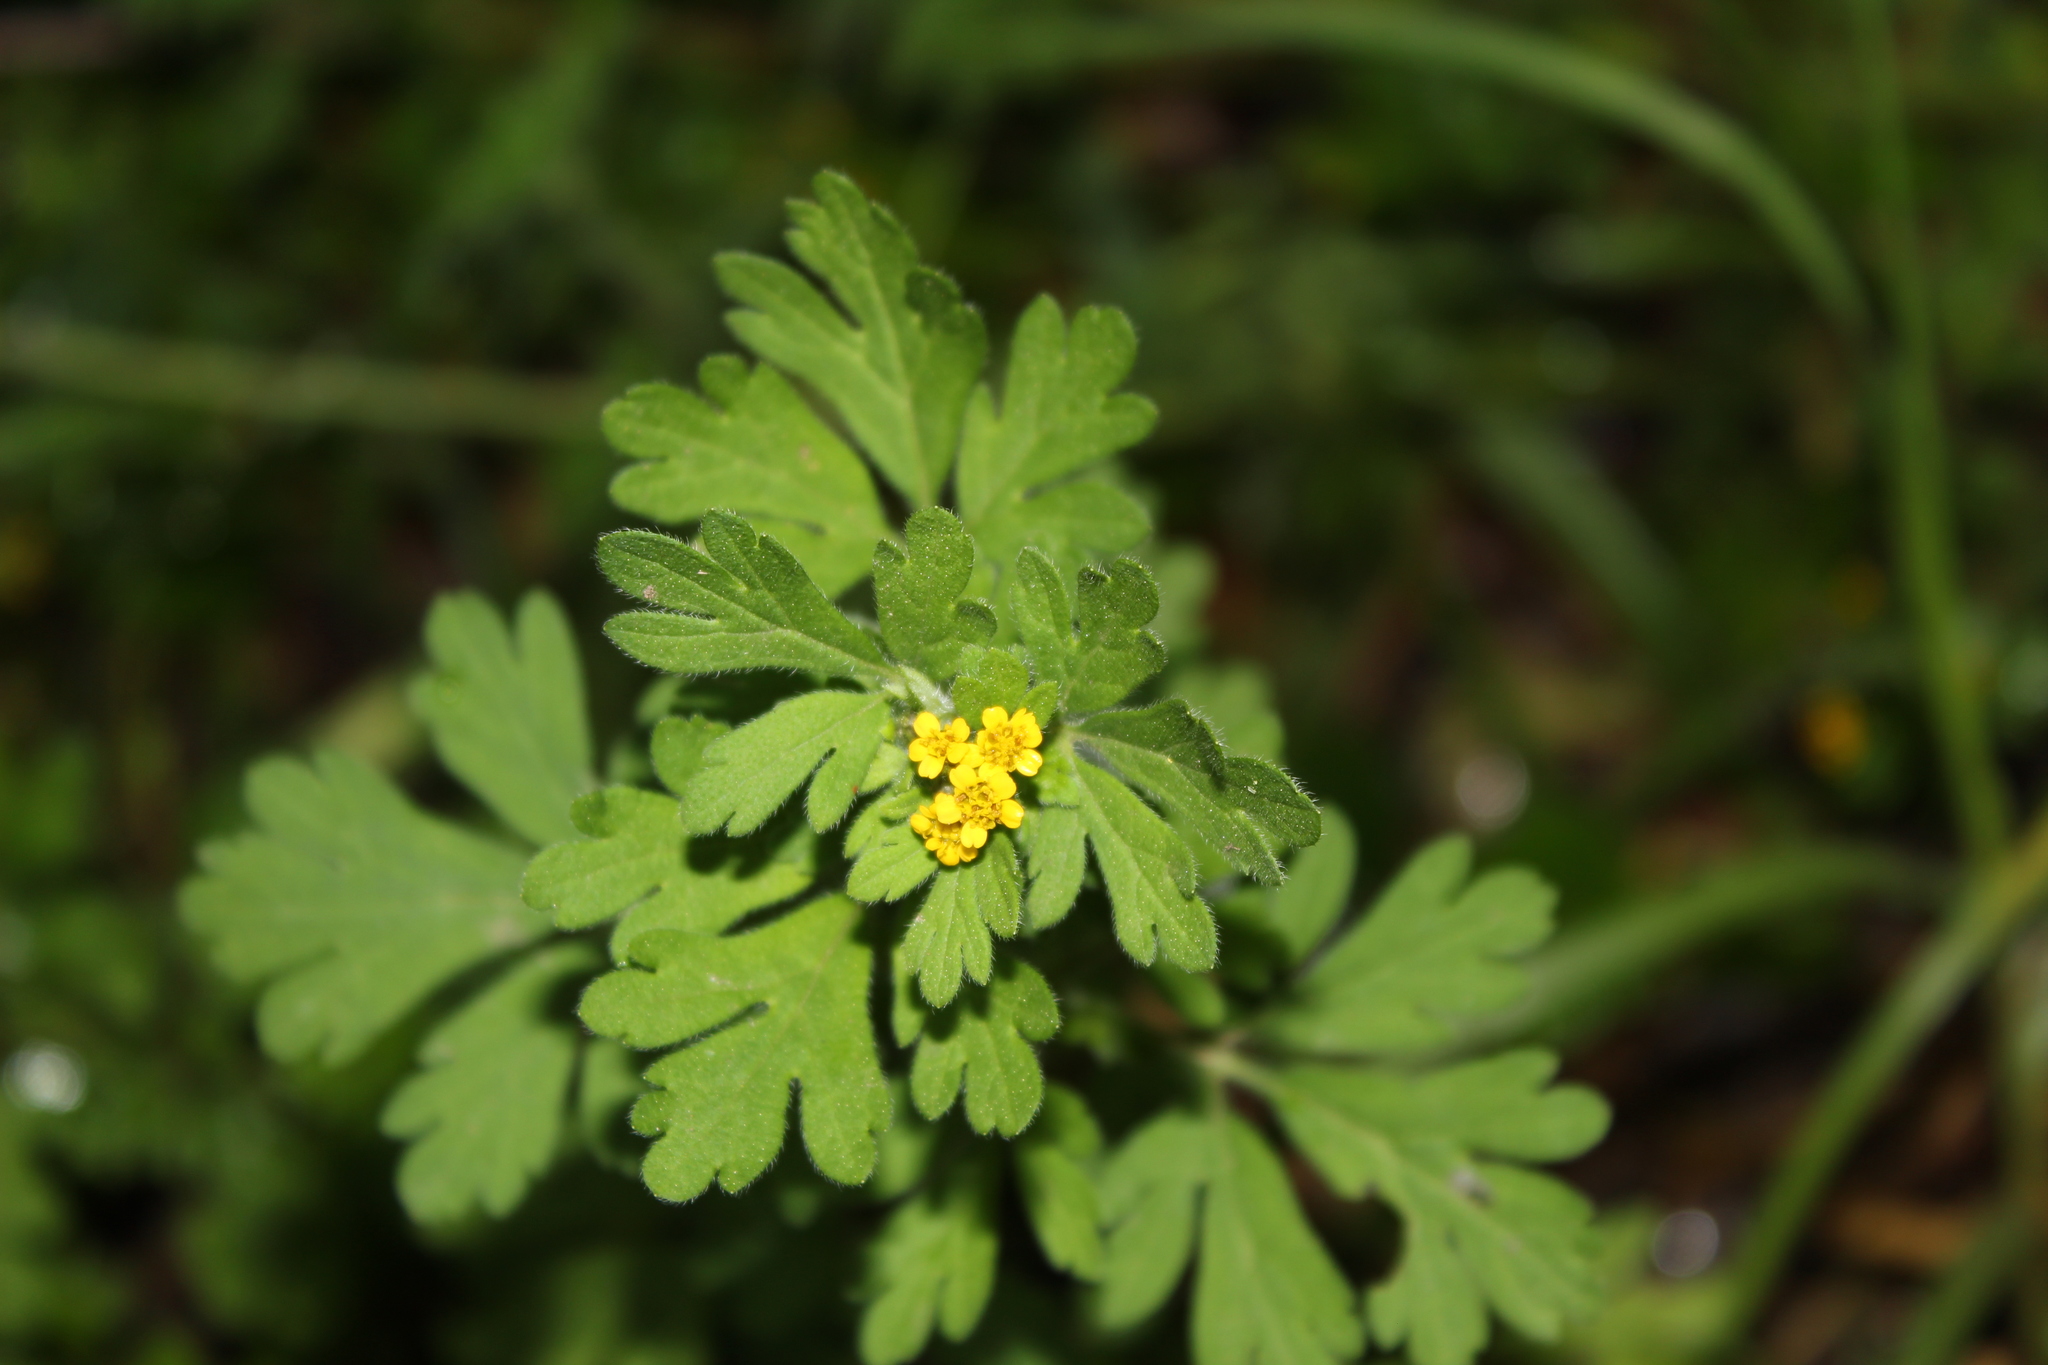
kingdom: Plantae
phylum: Tracheophyta
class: Magnoliopsida
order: Asterales
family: Asteraceae
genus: Villanova
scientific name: Villanova oppositifolia
